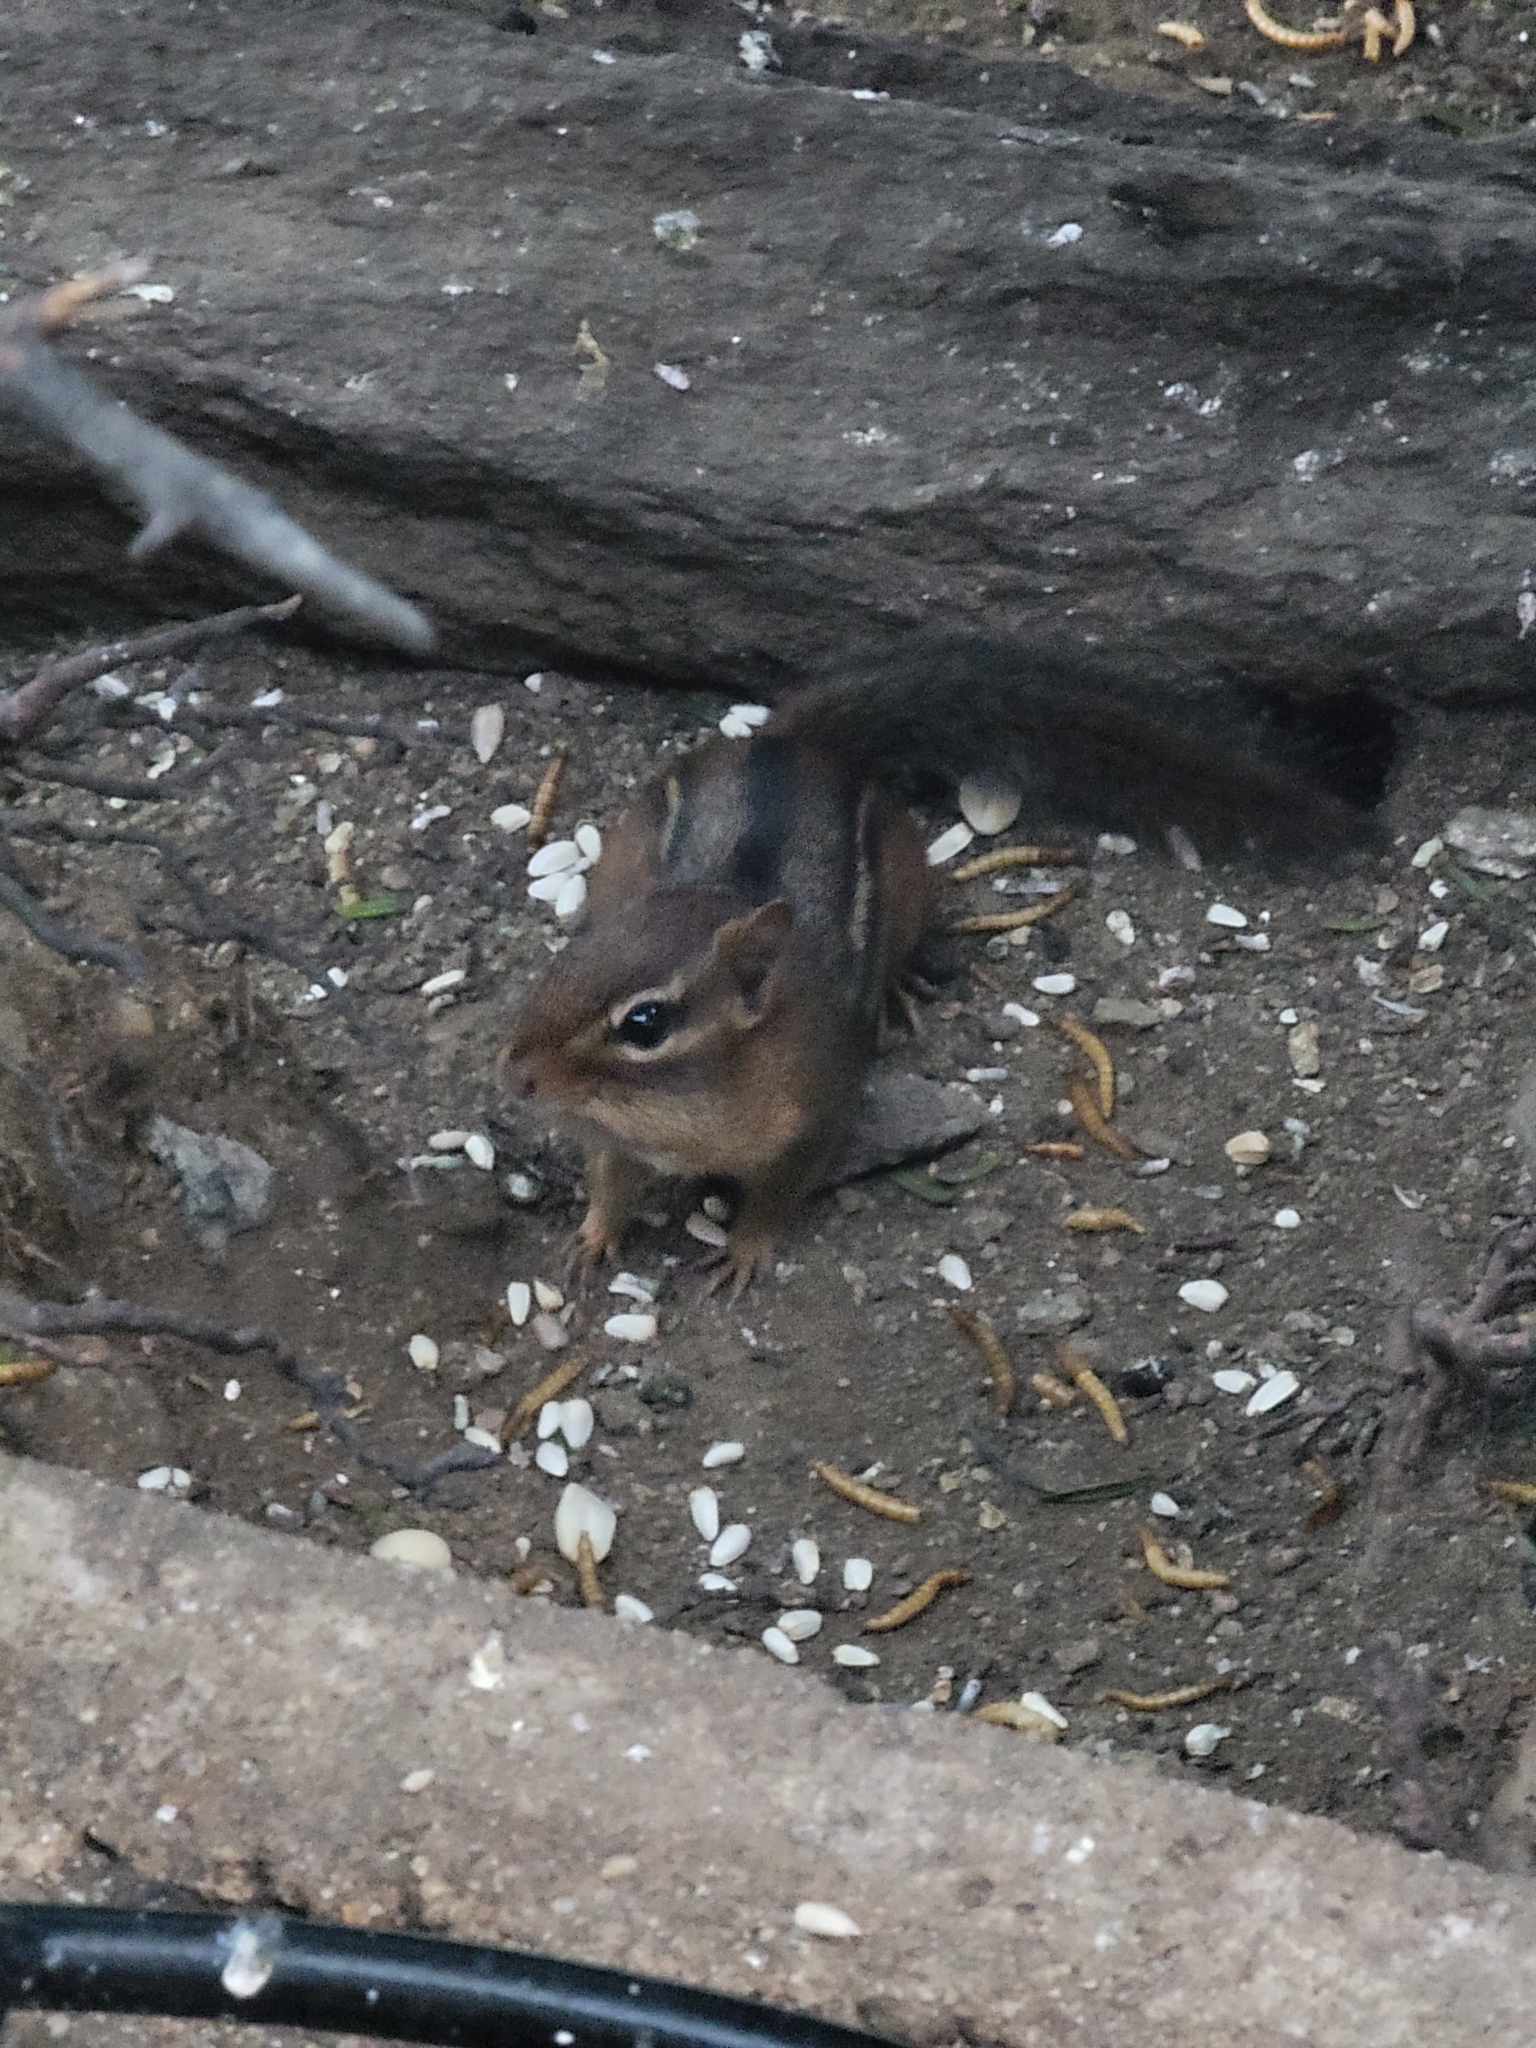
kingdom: Animalia
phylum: Chordata
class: Mammalia
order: Rodentia
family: Sciuridae
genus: Tamias
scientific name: Tamias striatus
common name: Eastern chipmunk
